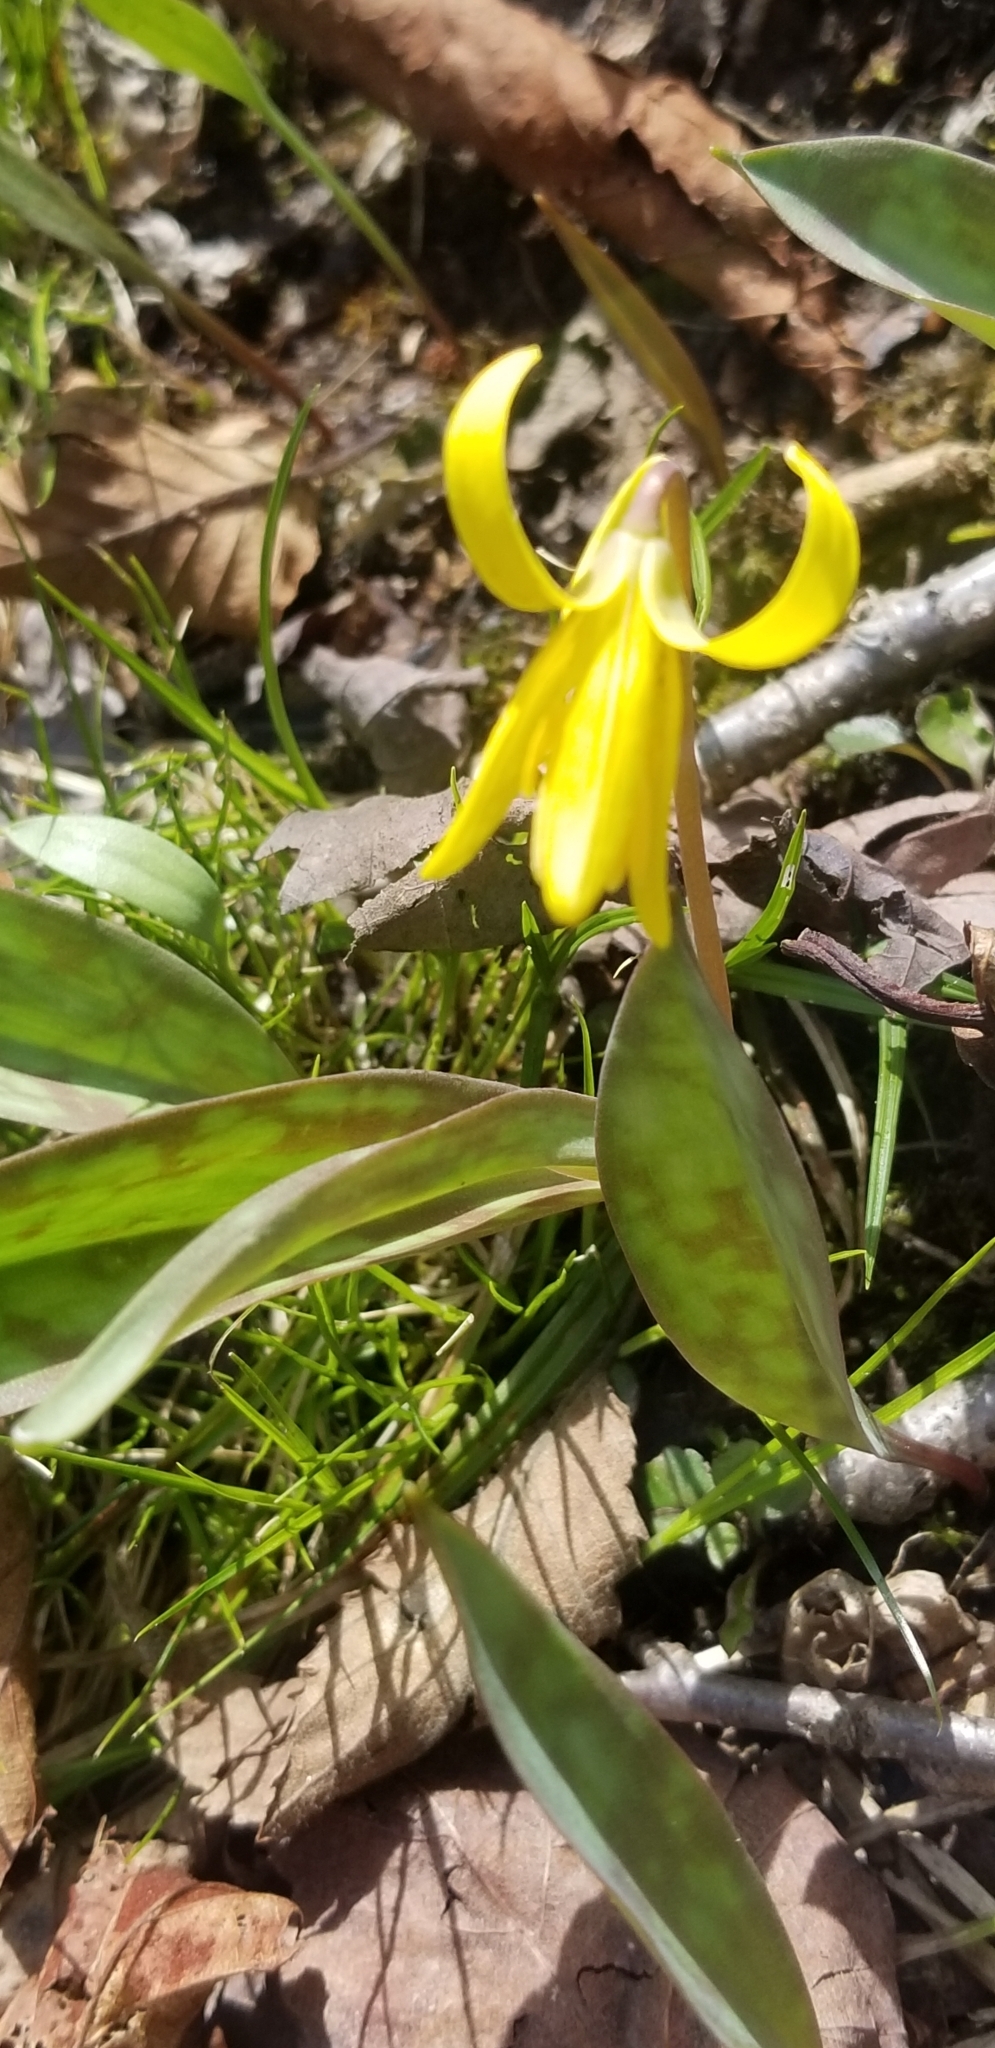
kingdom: Plantae
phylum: Tracheophyta
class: Liliopsida
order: Liliales
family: Liliaceae
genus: Erythronium
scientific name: Erythronium americanum
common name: Yellow adder's-tongue
